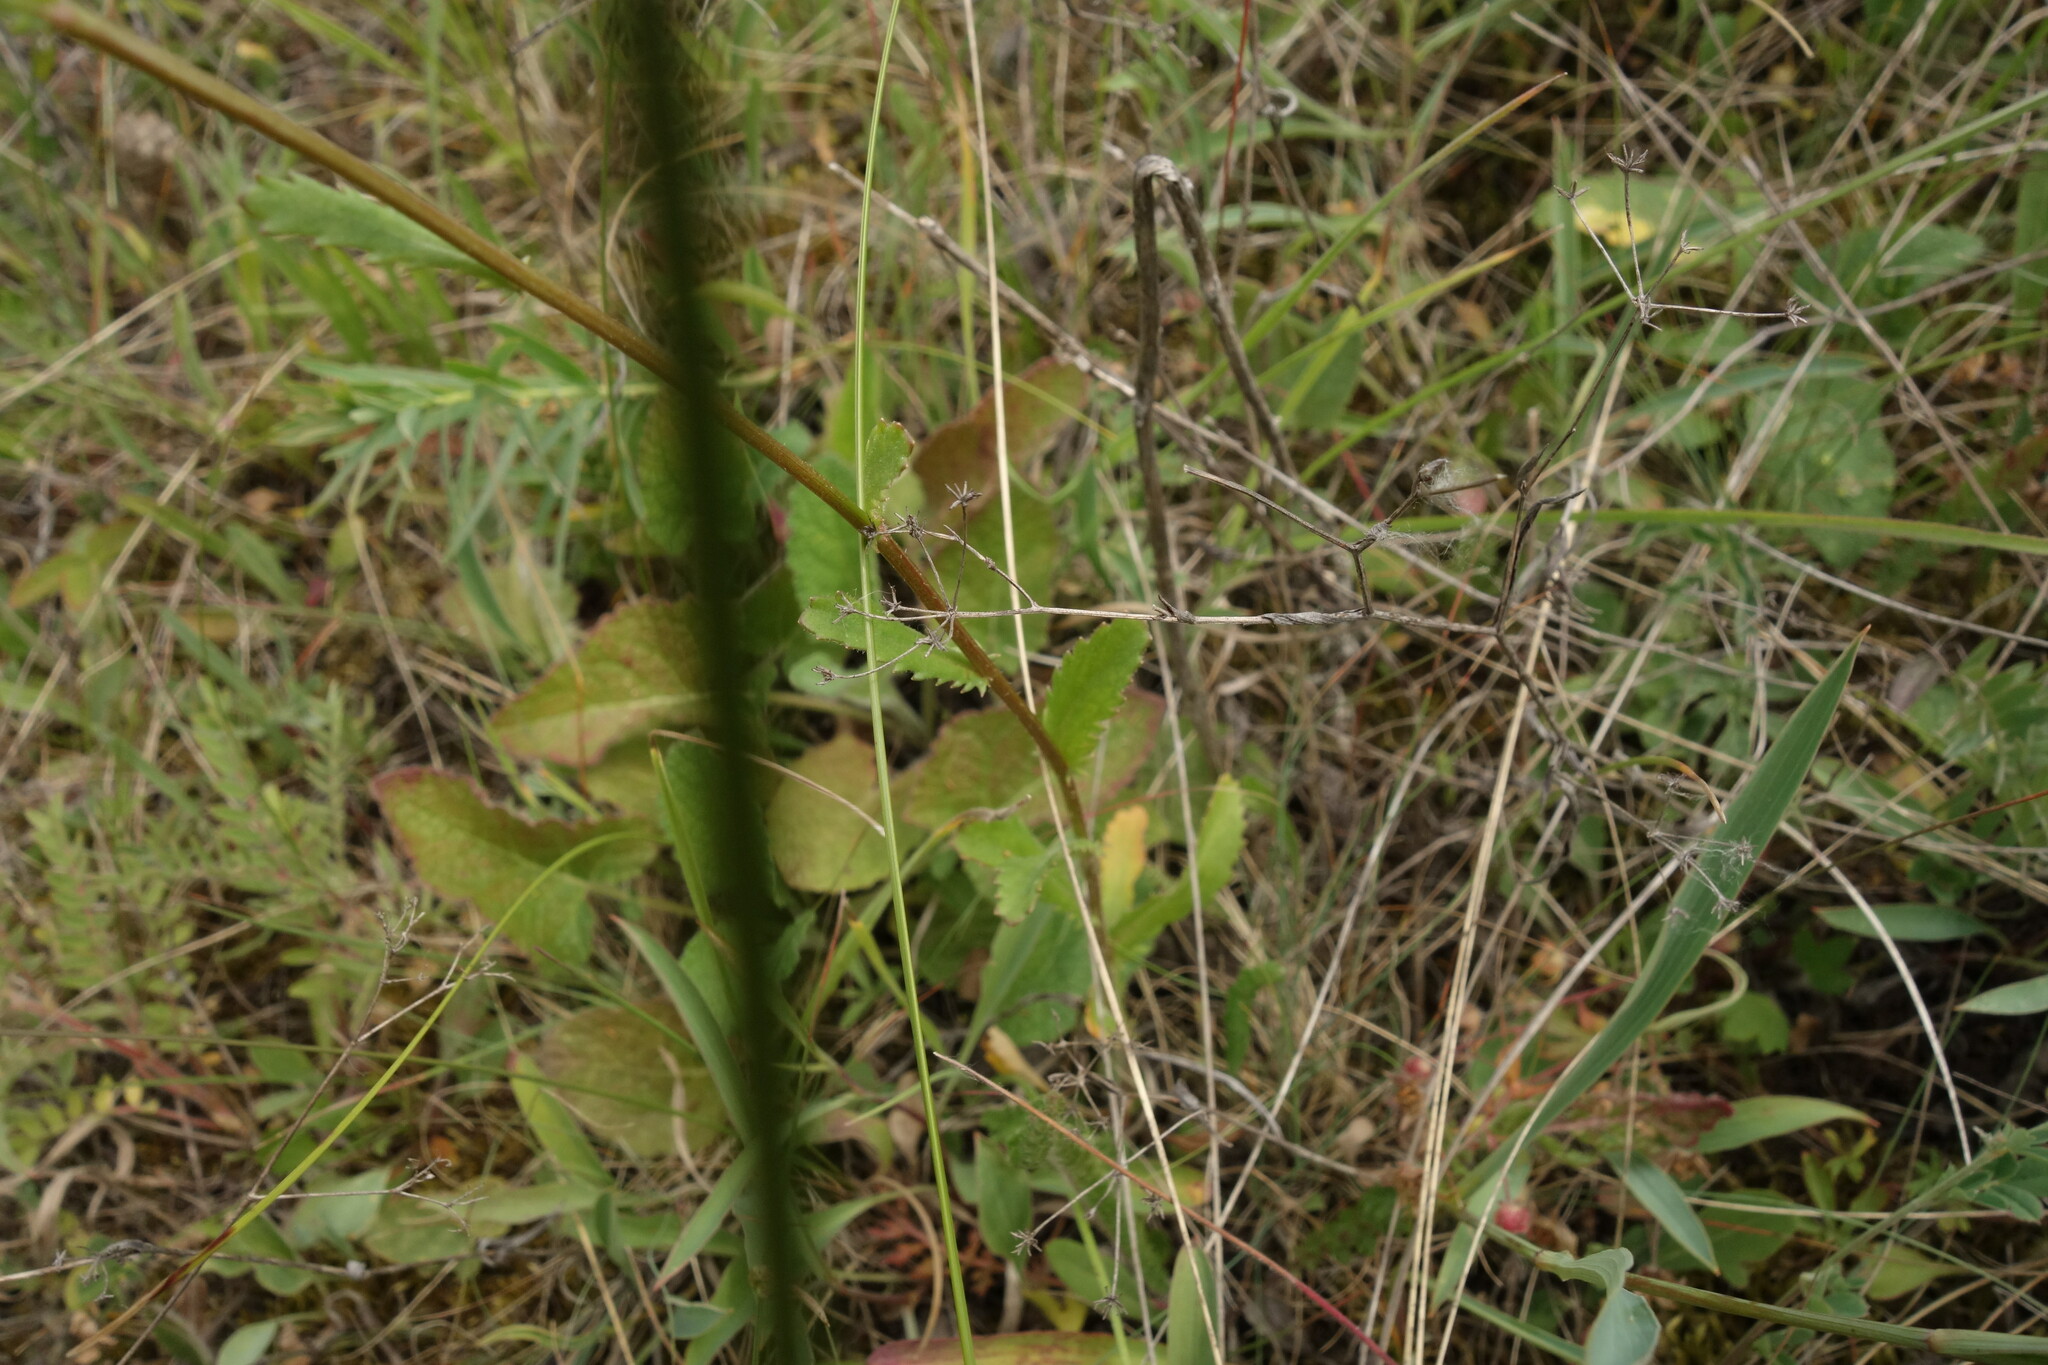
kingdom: Plantae
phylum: Tracheophyta
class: Magnoliopsida
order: Asterales
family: Asteraceae
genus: Leucanthemum
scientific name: Leucanthemum vulgare
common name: Oxeye daisy
